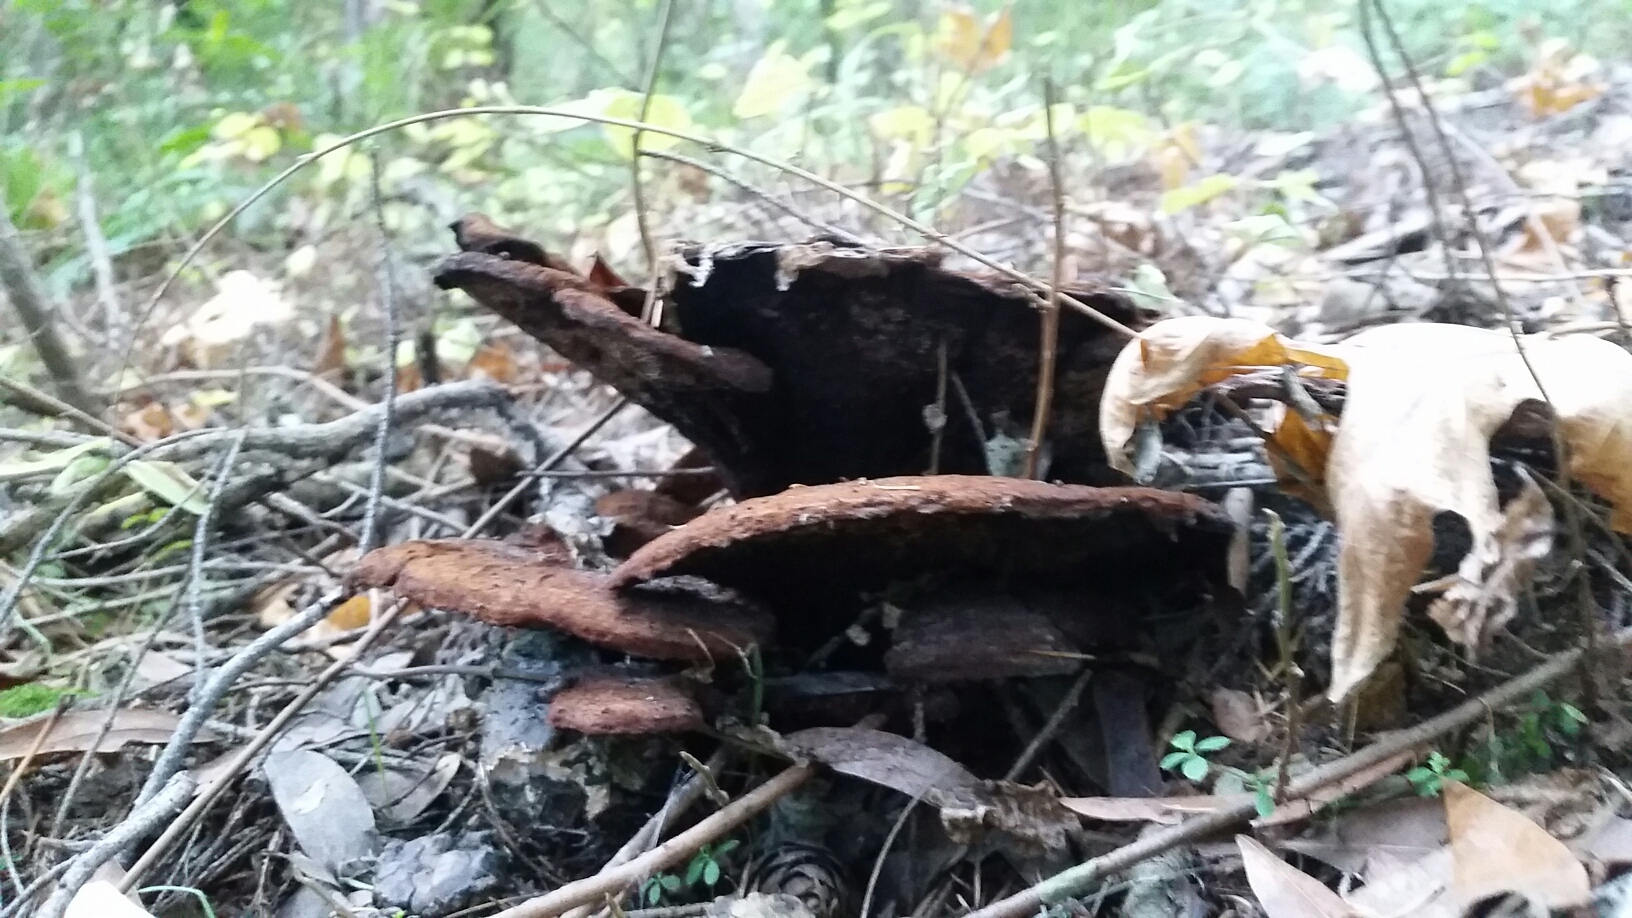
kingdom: Fungi
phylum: Basidiomycota
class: Agaricomycetes
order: Polyporales
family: Laetiporaceae
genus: Phaeolus
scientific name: Phaeolus schweinitzii
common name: Dyer's mazegill
